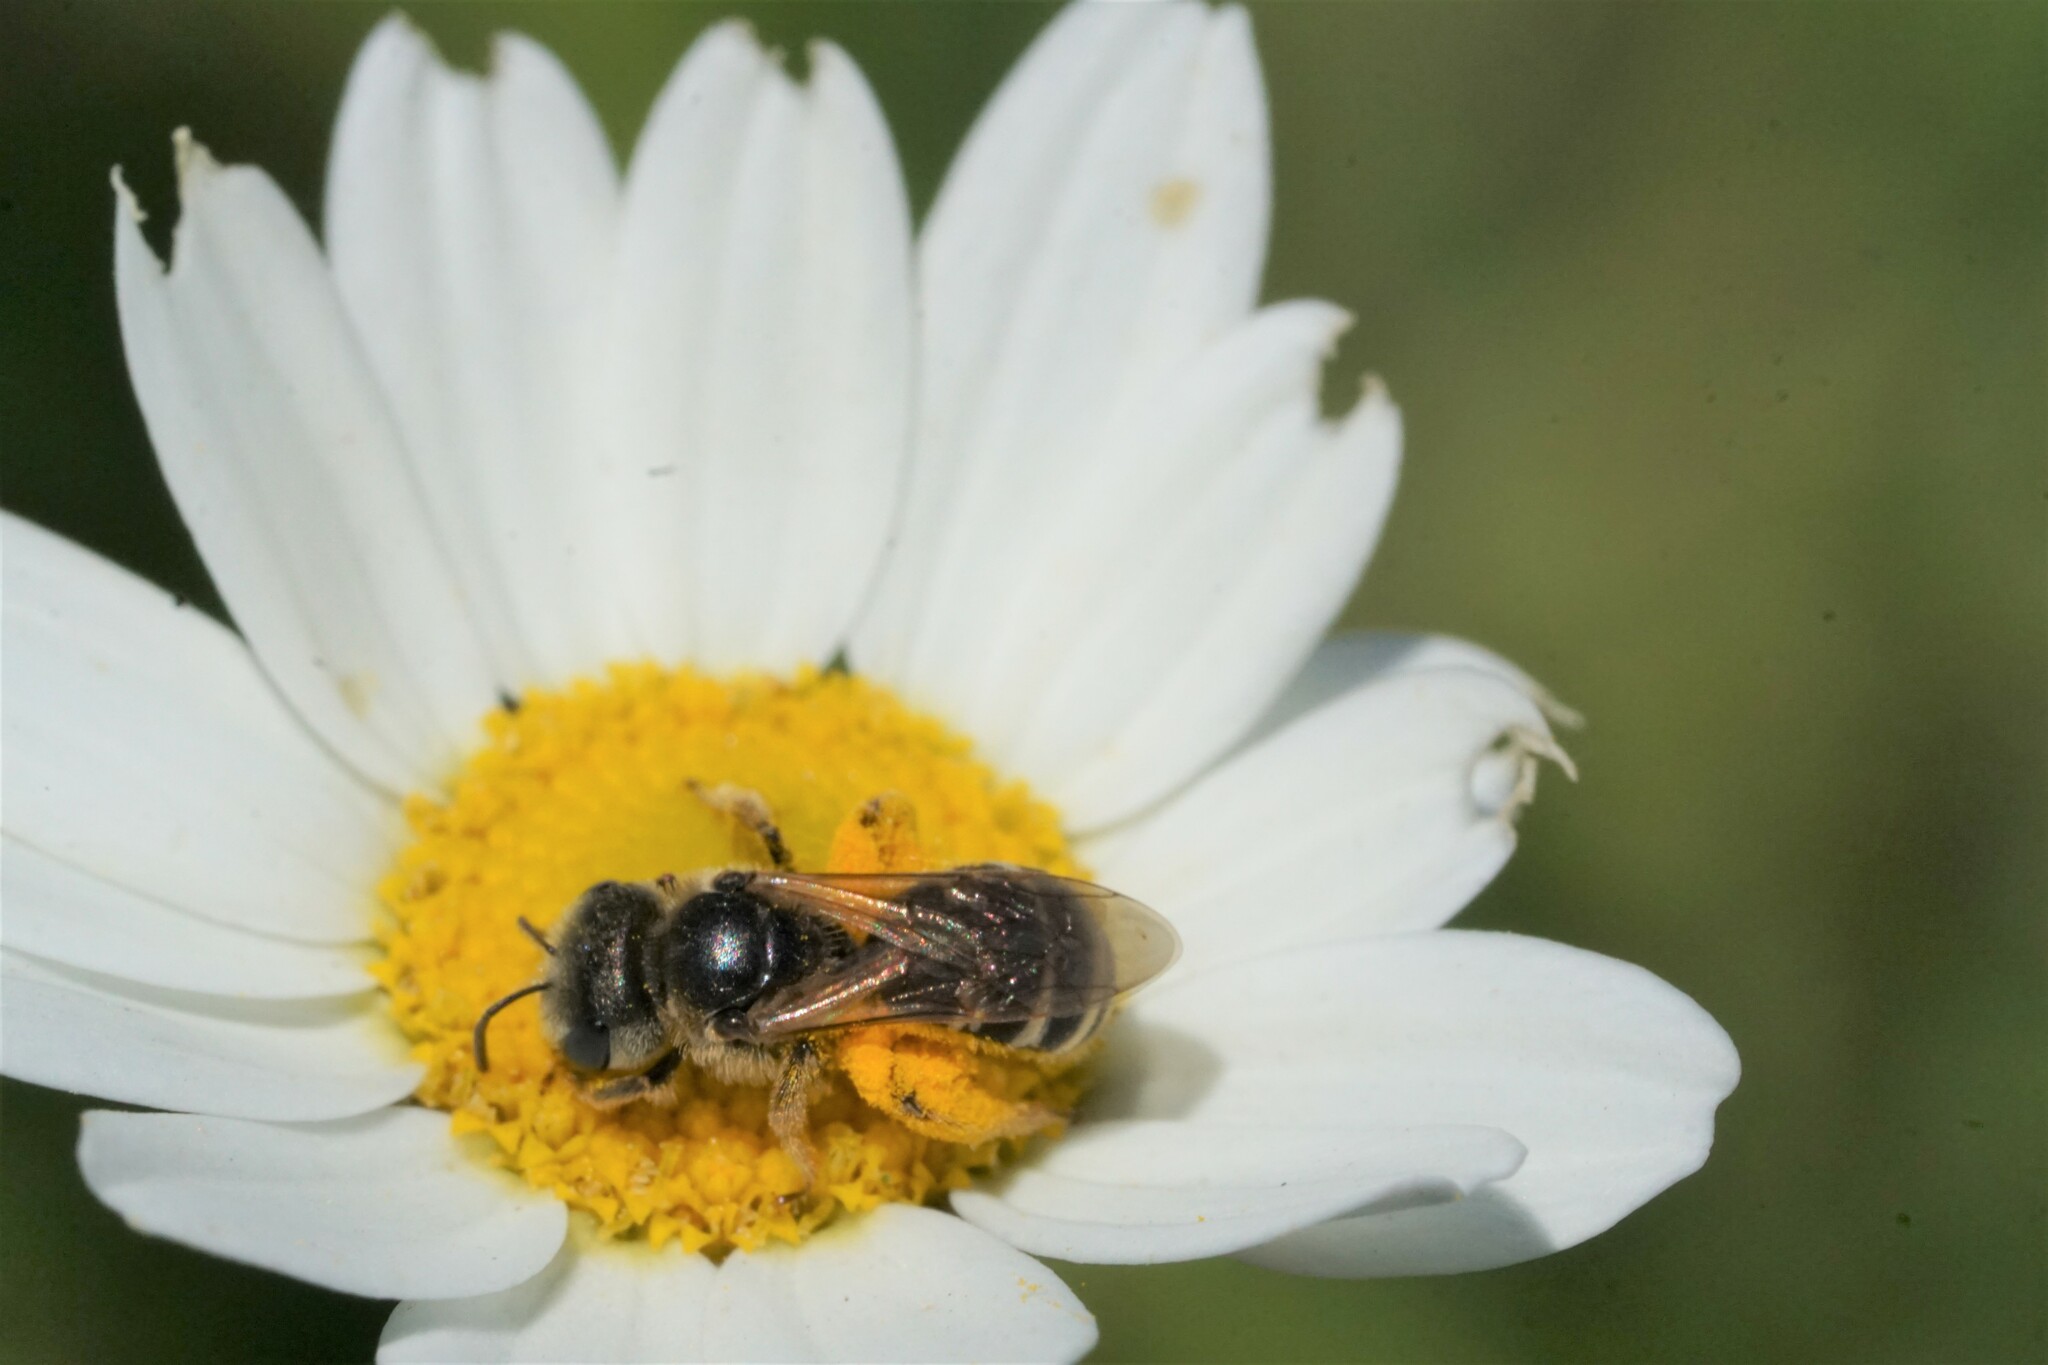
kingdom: Animalia
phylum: Arthropoda
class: Insecta
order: Hymenoptera
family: Halictidae
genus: Halictus
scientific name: Halictus ligatus
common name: Ligated furrow bee
